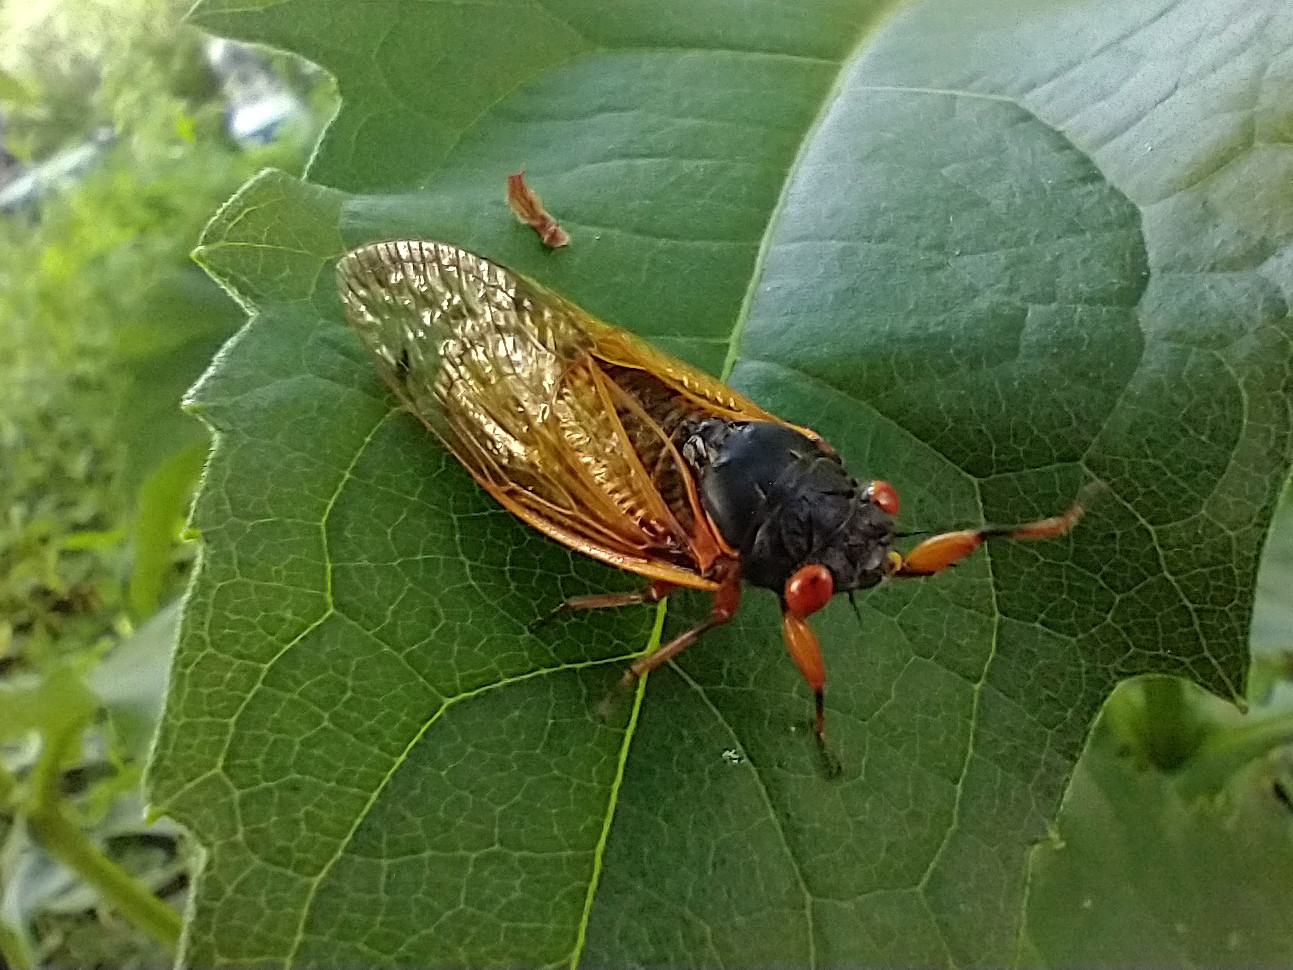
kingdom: Animalia
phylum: Arthropoda
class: Insecta
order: Hemiptera
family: Cicadidae
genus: Magicicada
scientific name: Magicicada cassini
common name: Cassin's 17-year cicada
